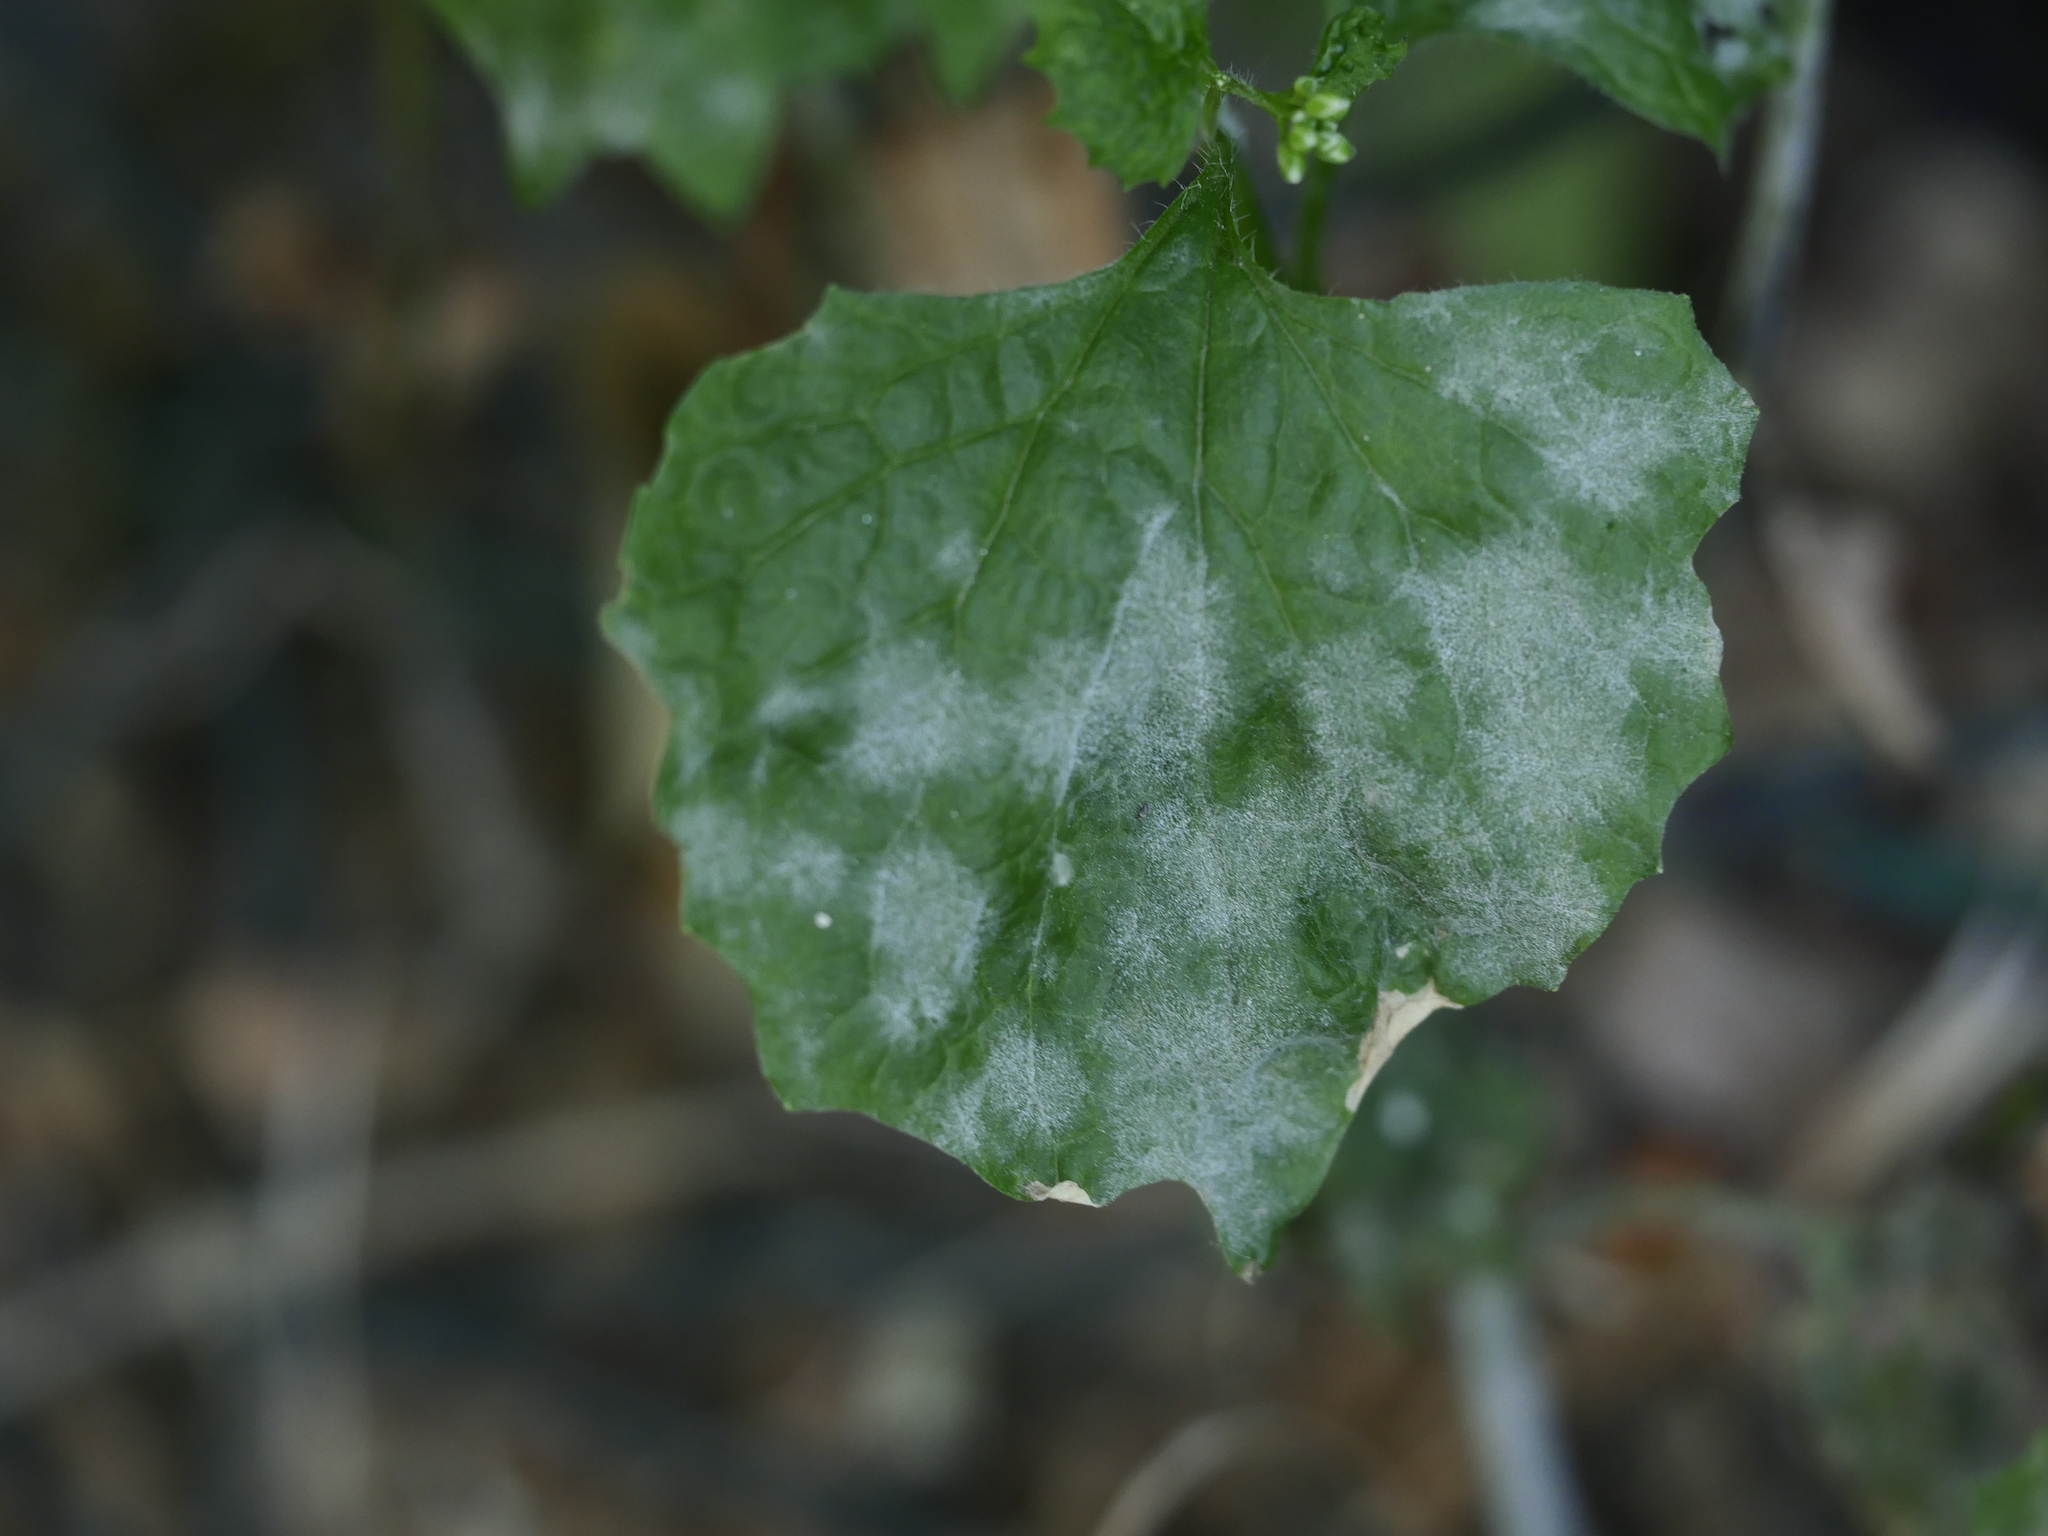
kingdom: Fungi
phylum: Ascomycota
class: Leotiomycetes
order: Helotiales
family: Erysiphaceae
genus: Erysiphe
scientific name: Erysiphe cruciferarum
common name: Brassica powdery mildew
